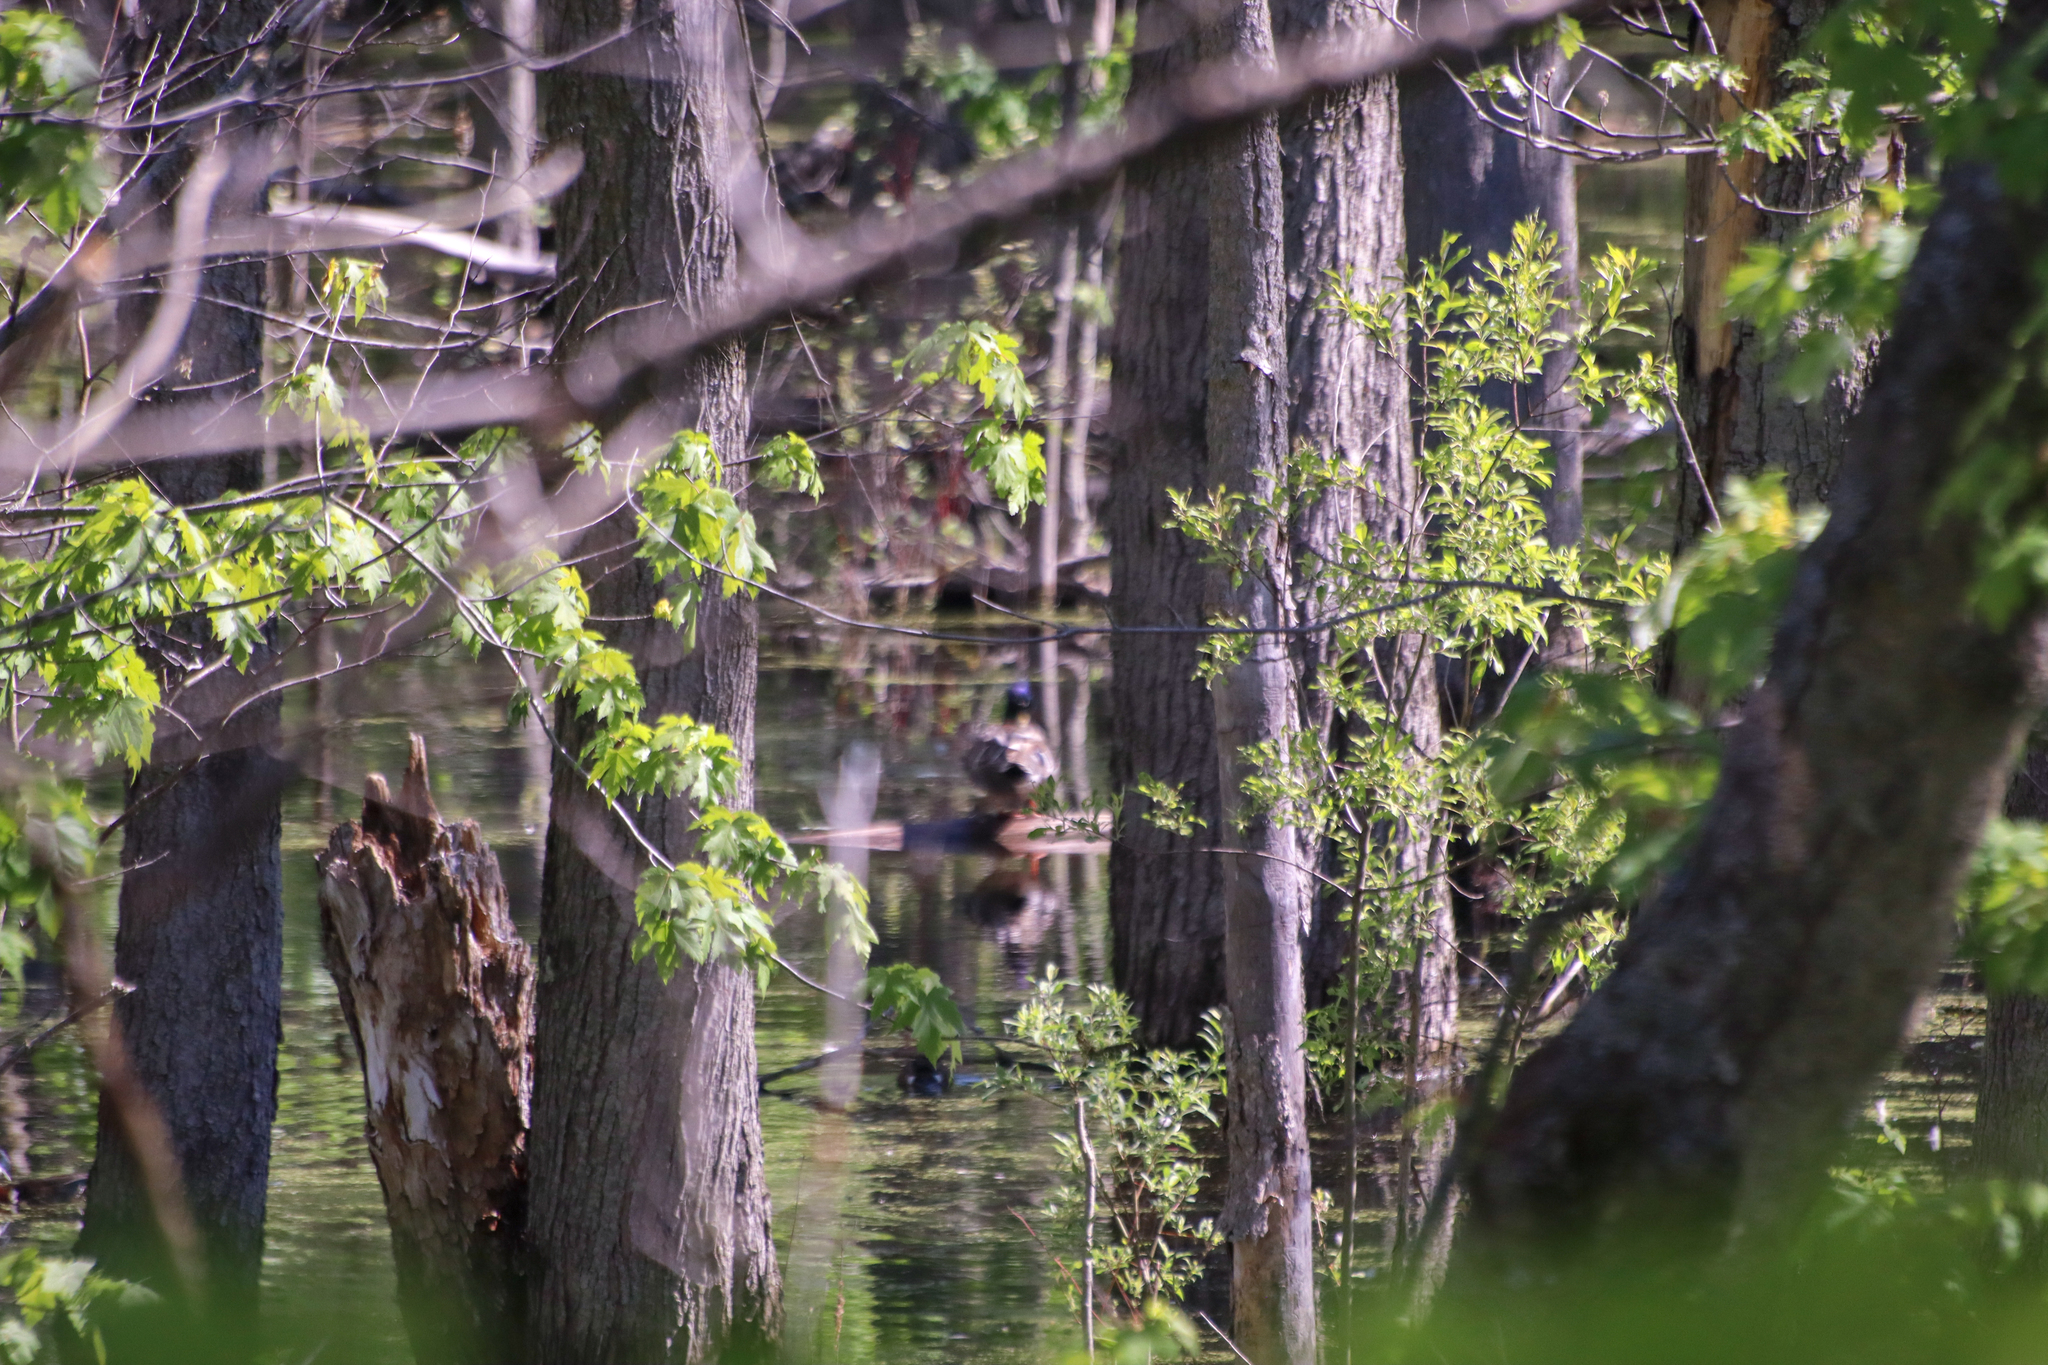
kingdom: Animalia
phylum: Chordata
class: Aves
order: Anseriformes
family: Anatidae
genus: Anas
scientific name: Anas platyrhynchos
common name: Mallard
